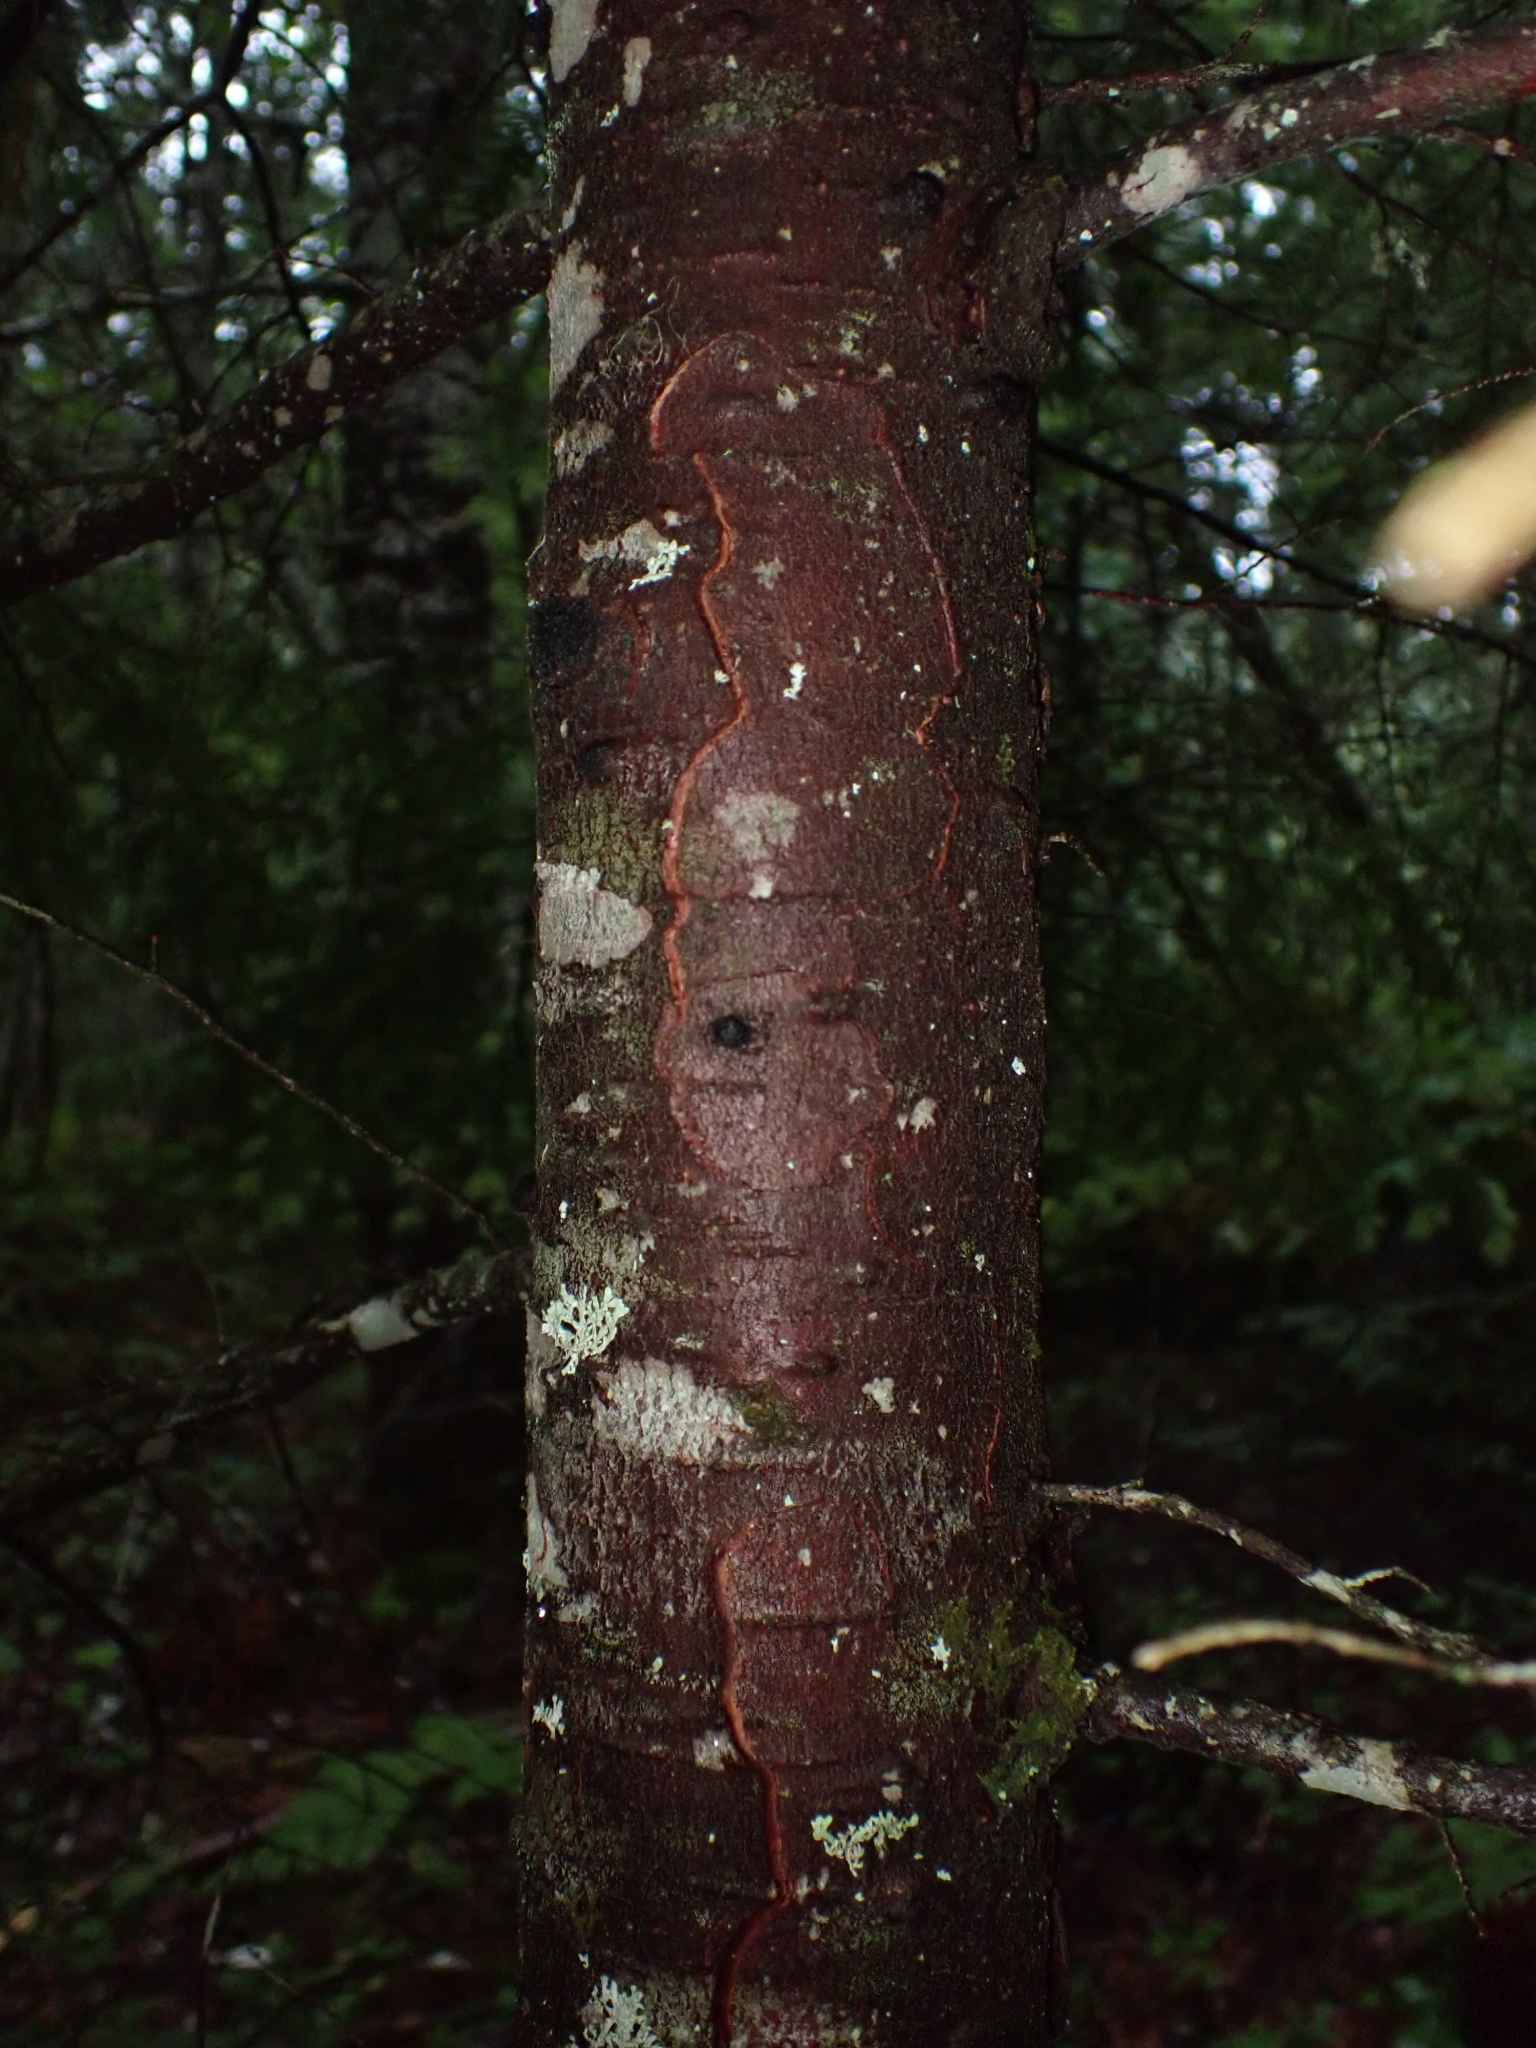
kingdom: Plantae
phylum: Tracheophyta
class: Pinopsida
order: Pinales
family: Pinaceae
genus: Tsuga
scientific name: Tsuga heterophylla
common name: Western hemlock
